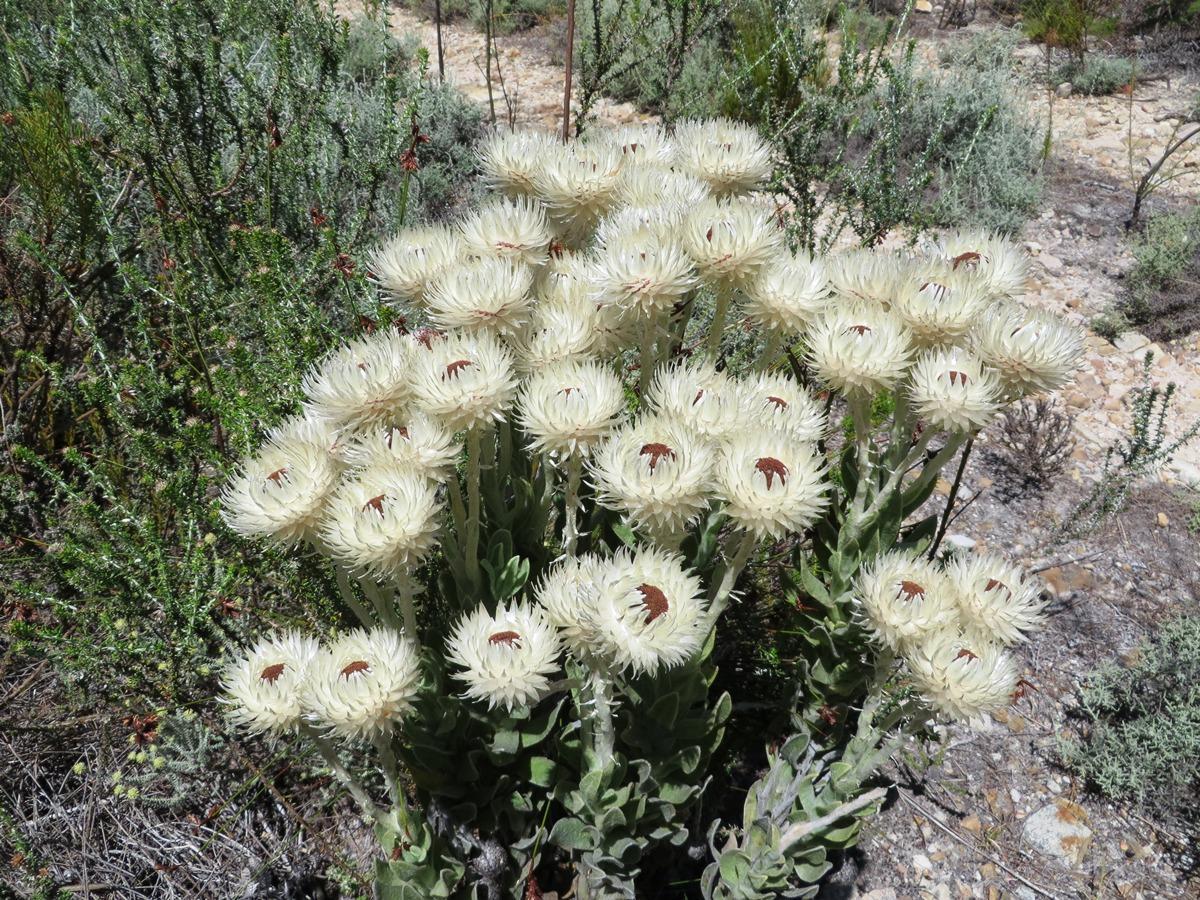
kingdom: Plantae
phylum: Tracheophyta
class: Magnoliopsida
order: Asterales
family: Asteraceae
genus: Syncarpha
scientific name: Syncarpha vestita
